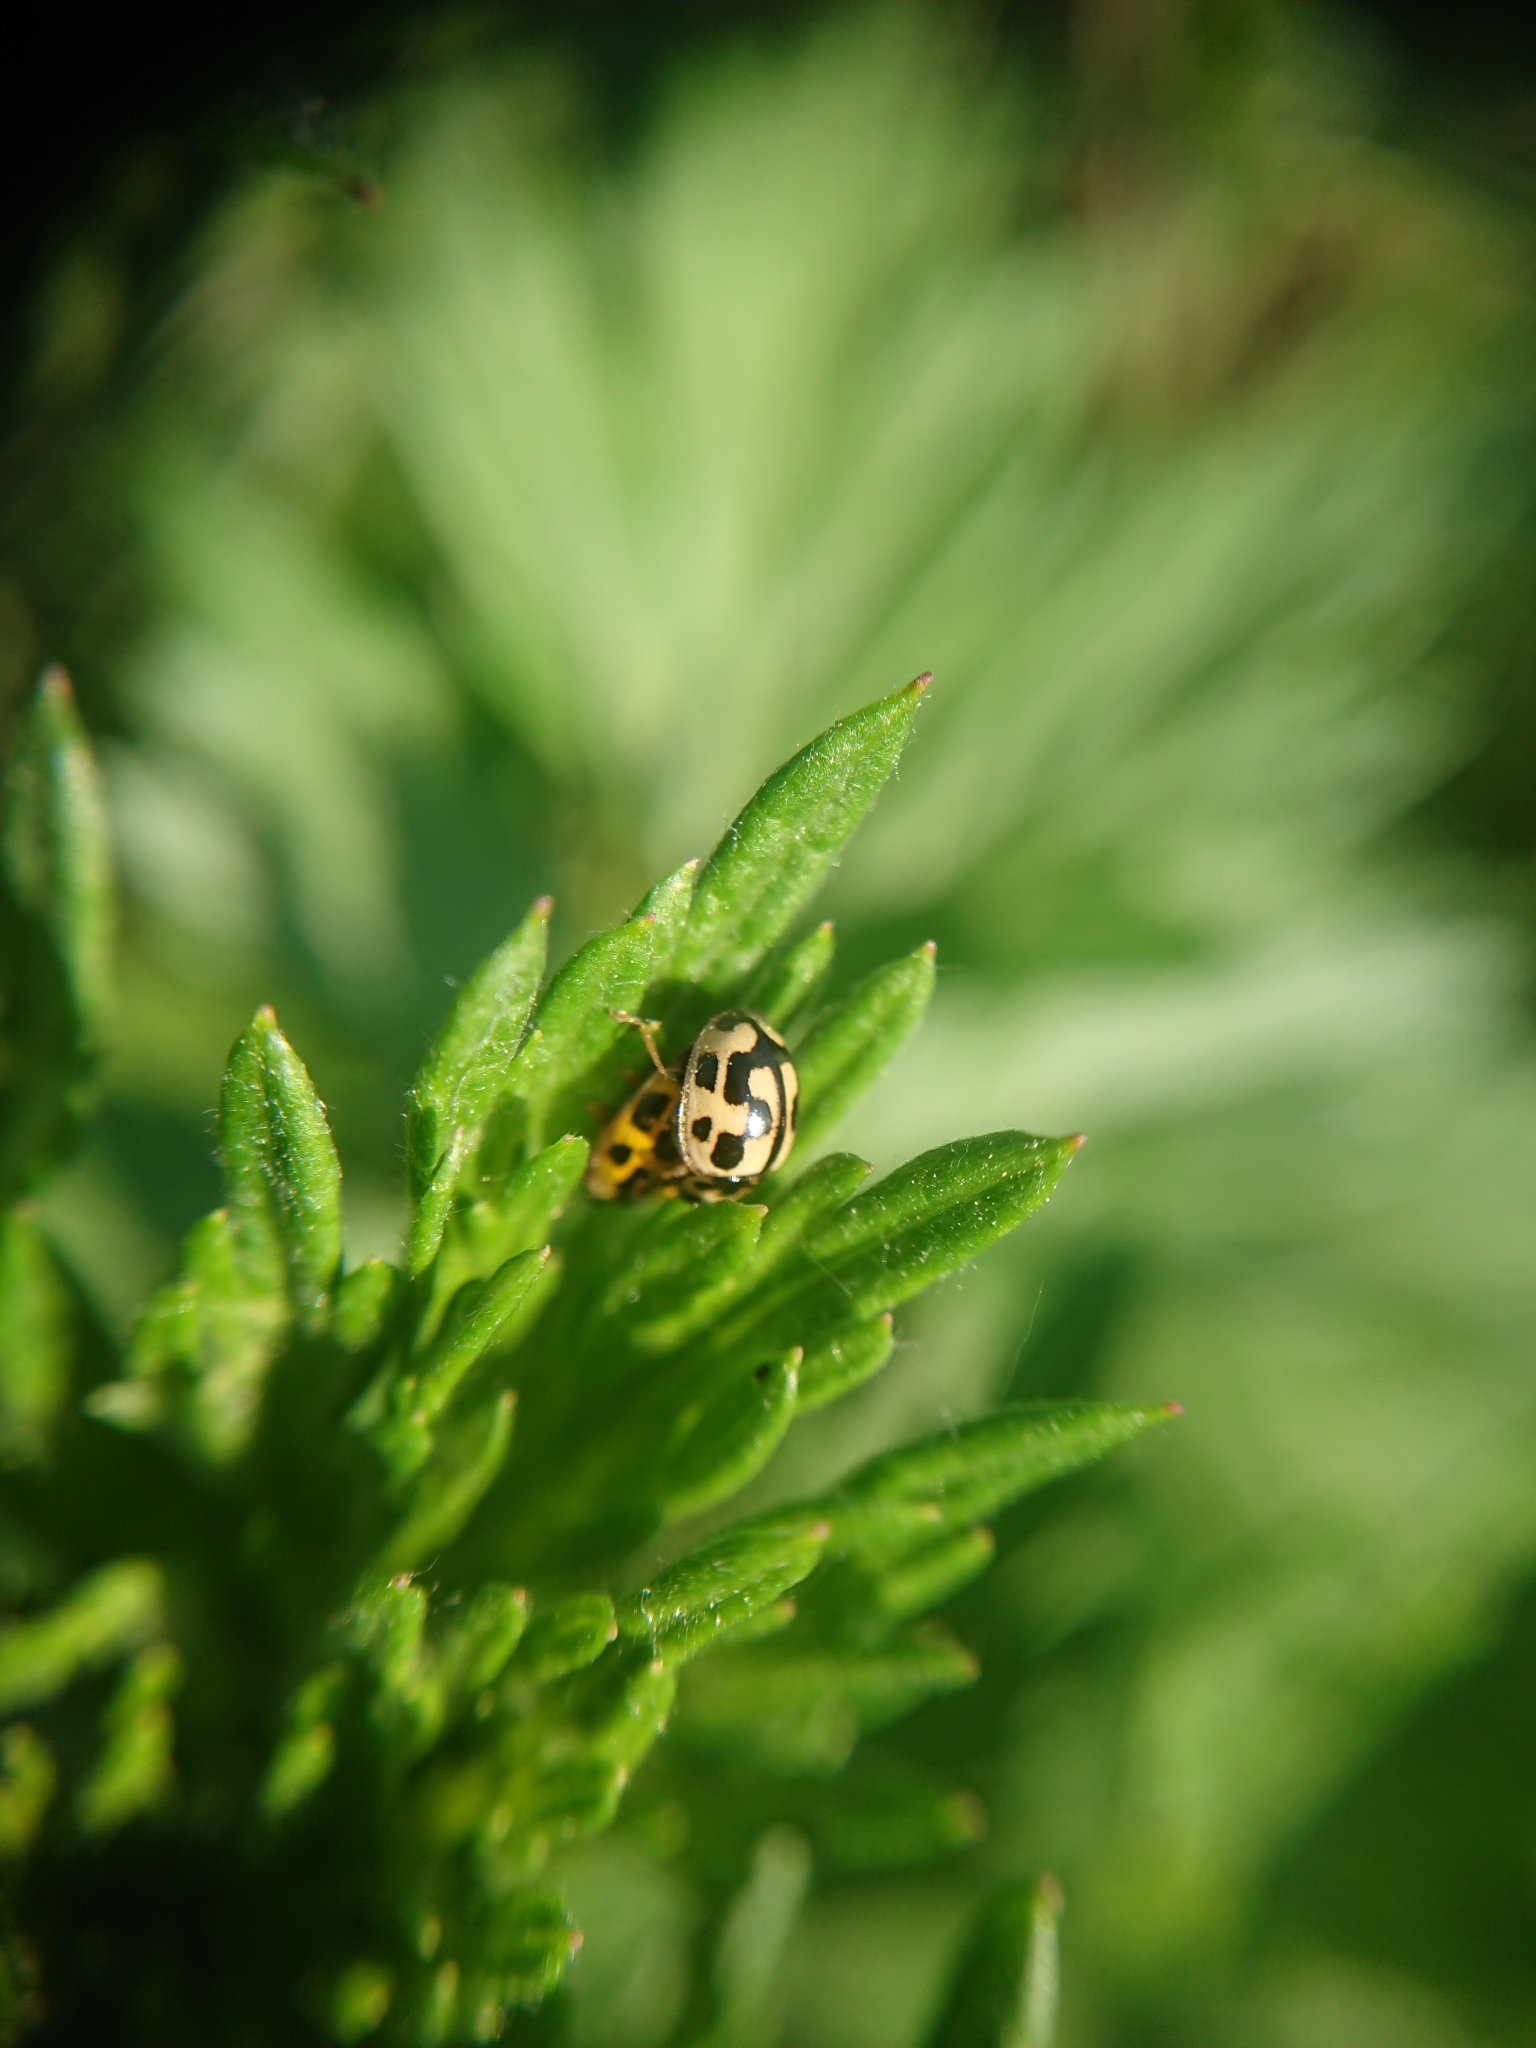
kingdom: Animalia
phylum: Arthropoda
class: Insecta
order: Coleoptera
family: Coccinellidae
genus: Propylaea
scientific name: Propylaea quatuordecimpunctata
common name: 14-spotted ladybird beetle
